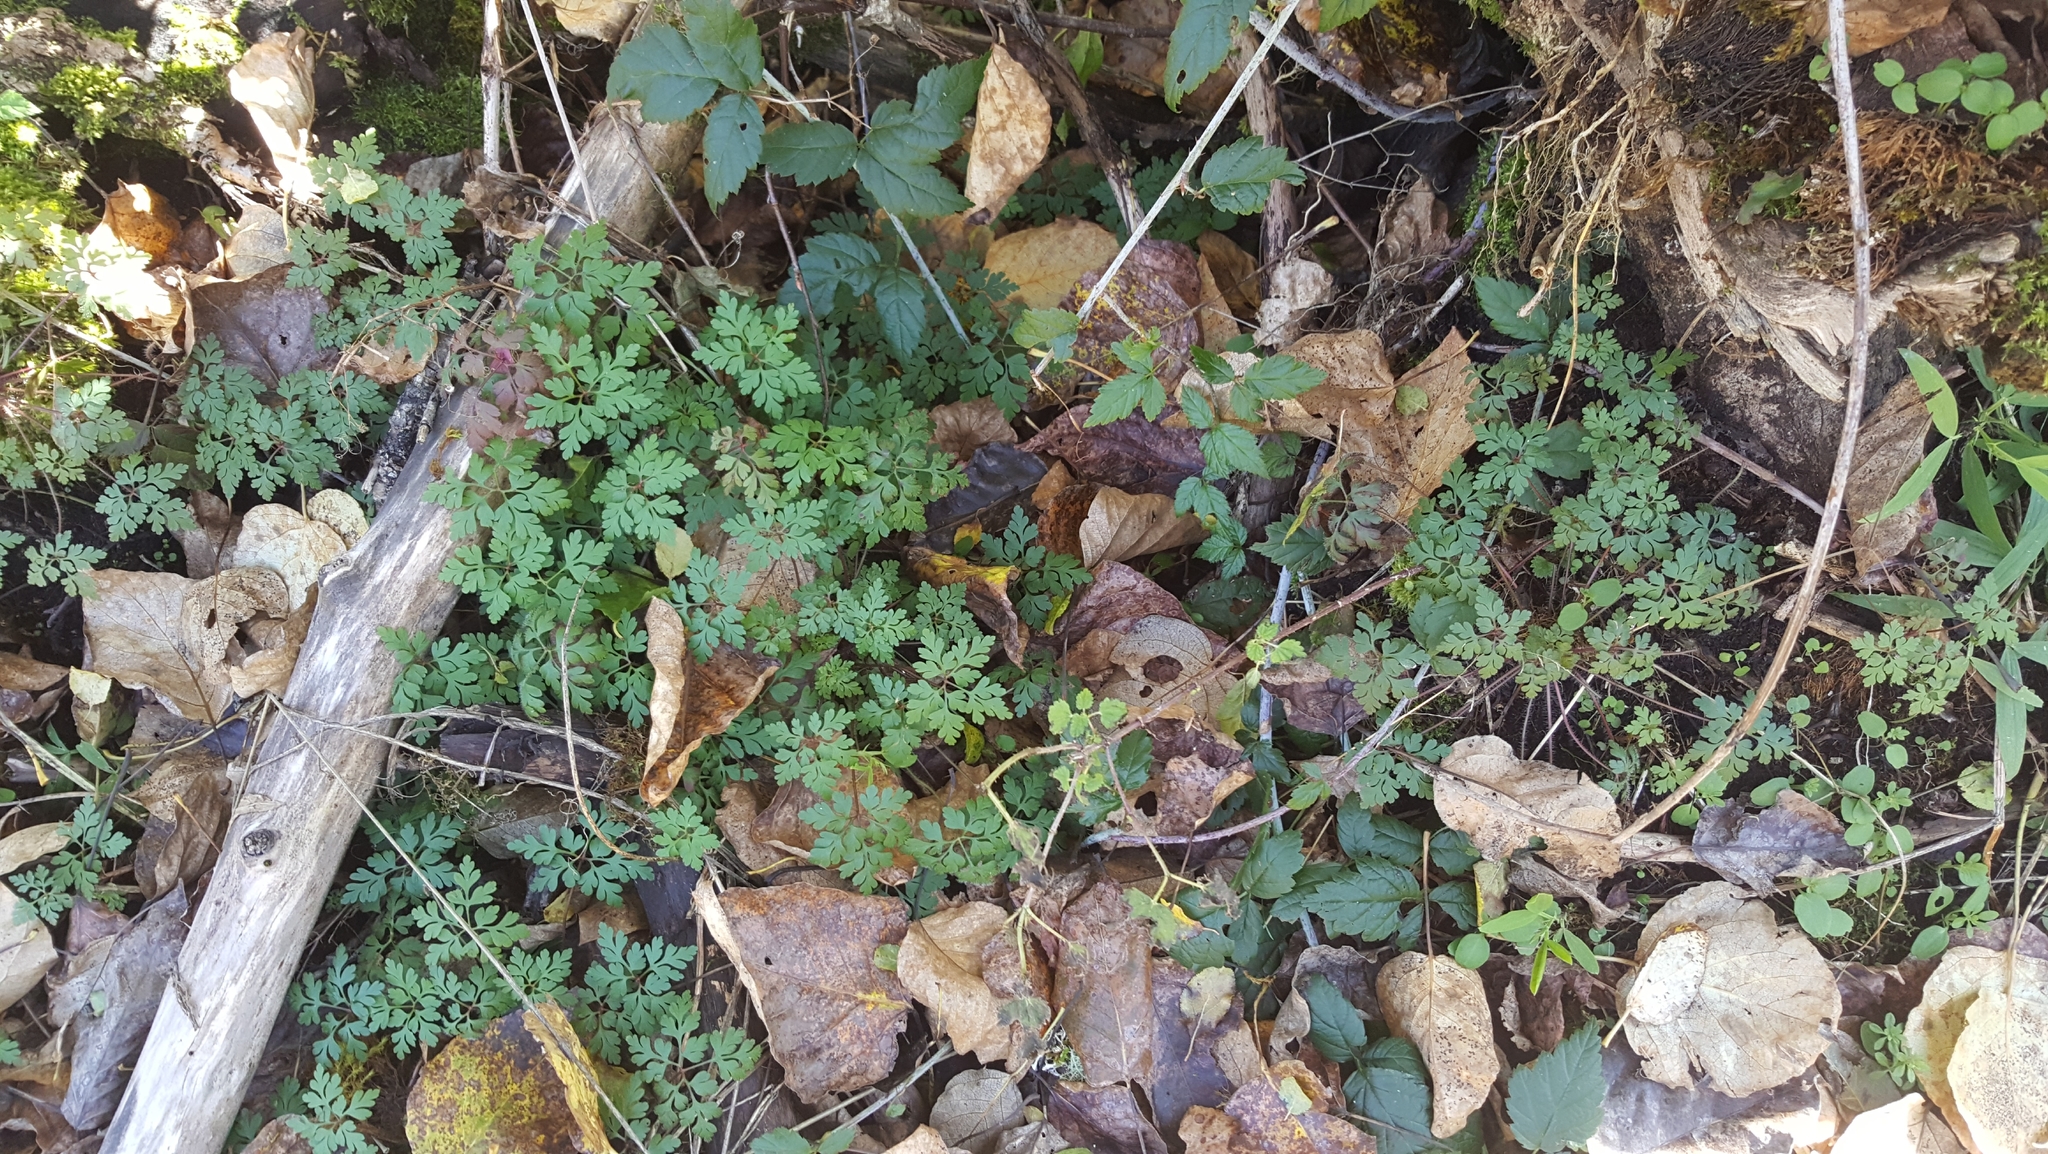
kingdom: Plantae
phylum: Tracheophyta
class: Magnoliopsida
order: Geraniales
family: Geraniaceae
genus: Geranium
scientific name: Geranium robertianum
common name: Herb-robert
